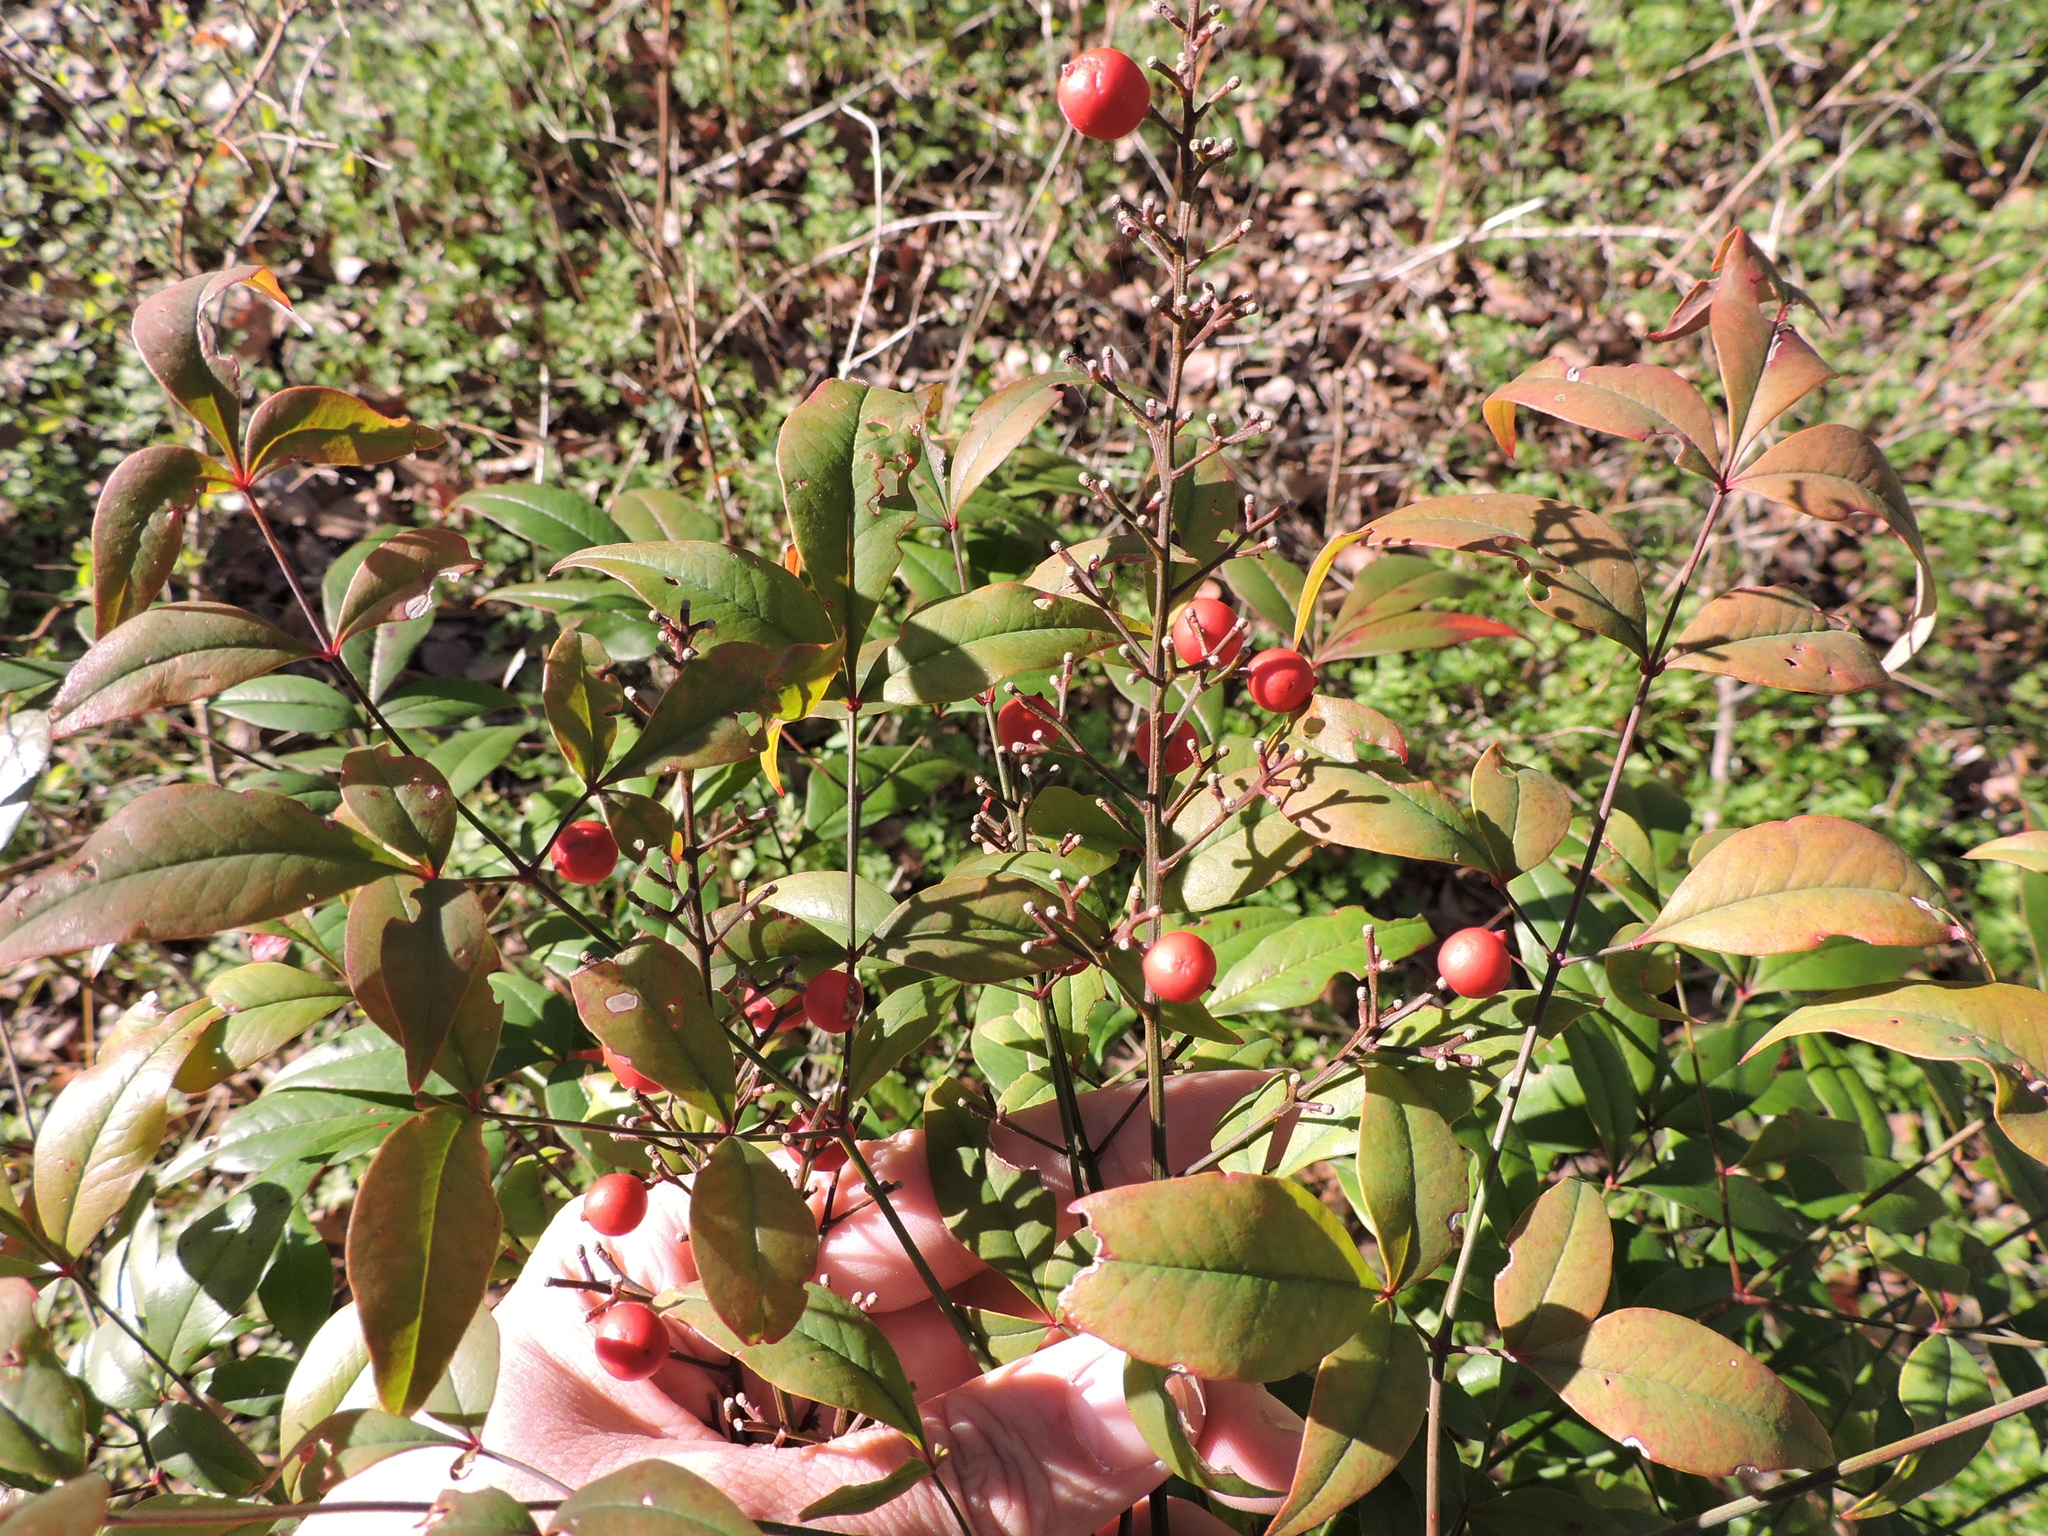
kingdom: Plantae
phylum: Tracheophyta
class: Magnoliopsida
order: Ranunculales
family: Berberidaceae
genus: Nandina
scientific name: Nandina domestica
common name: Sacred bamboo
